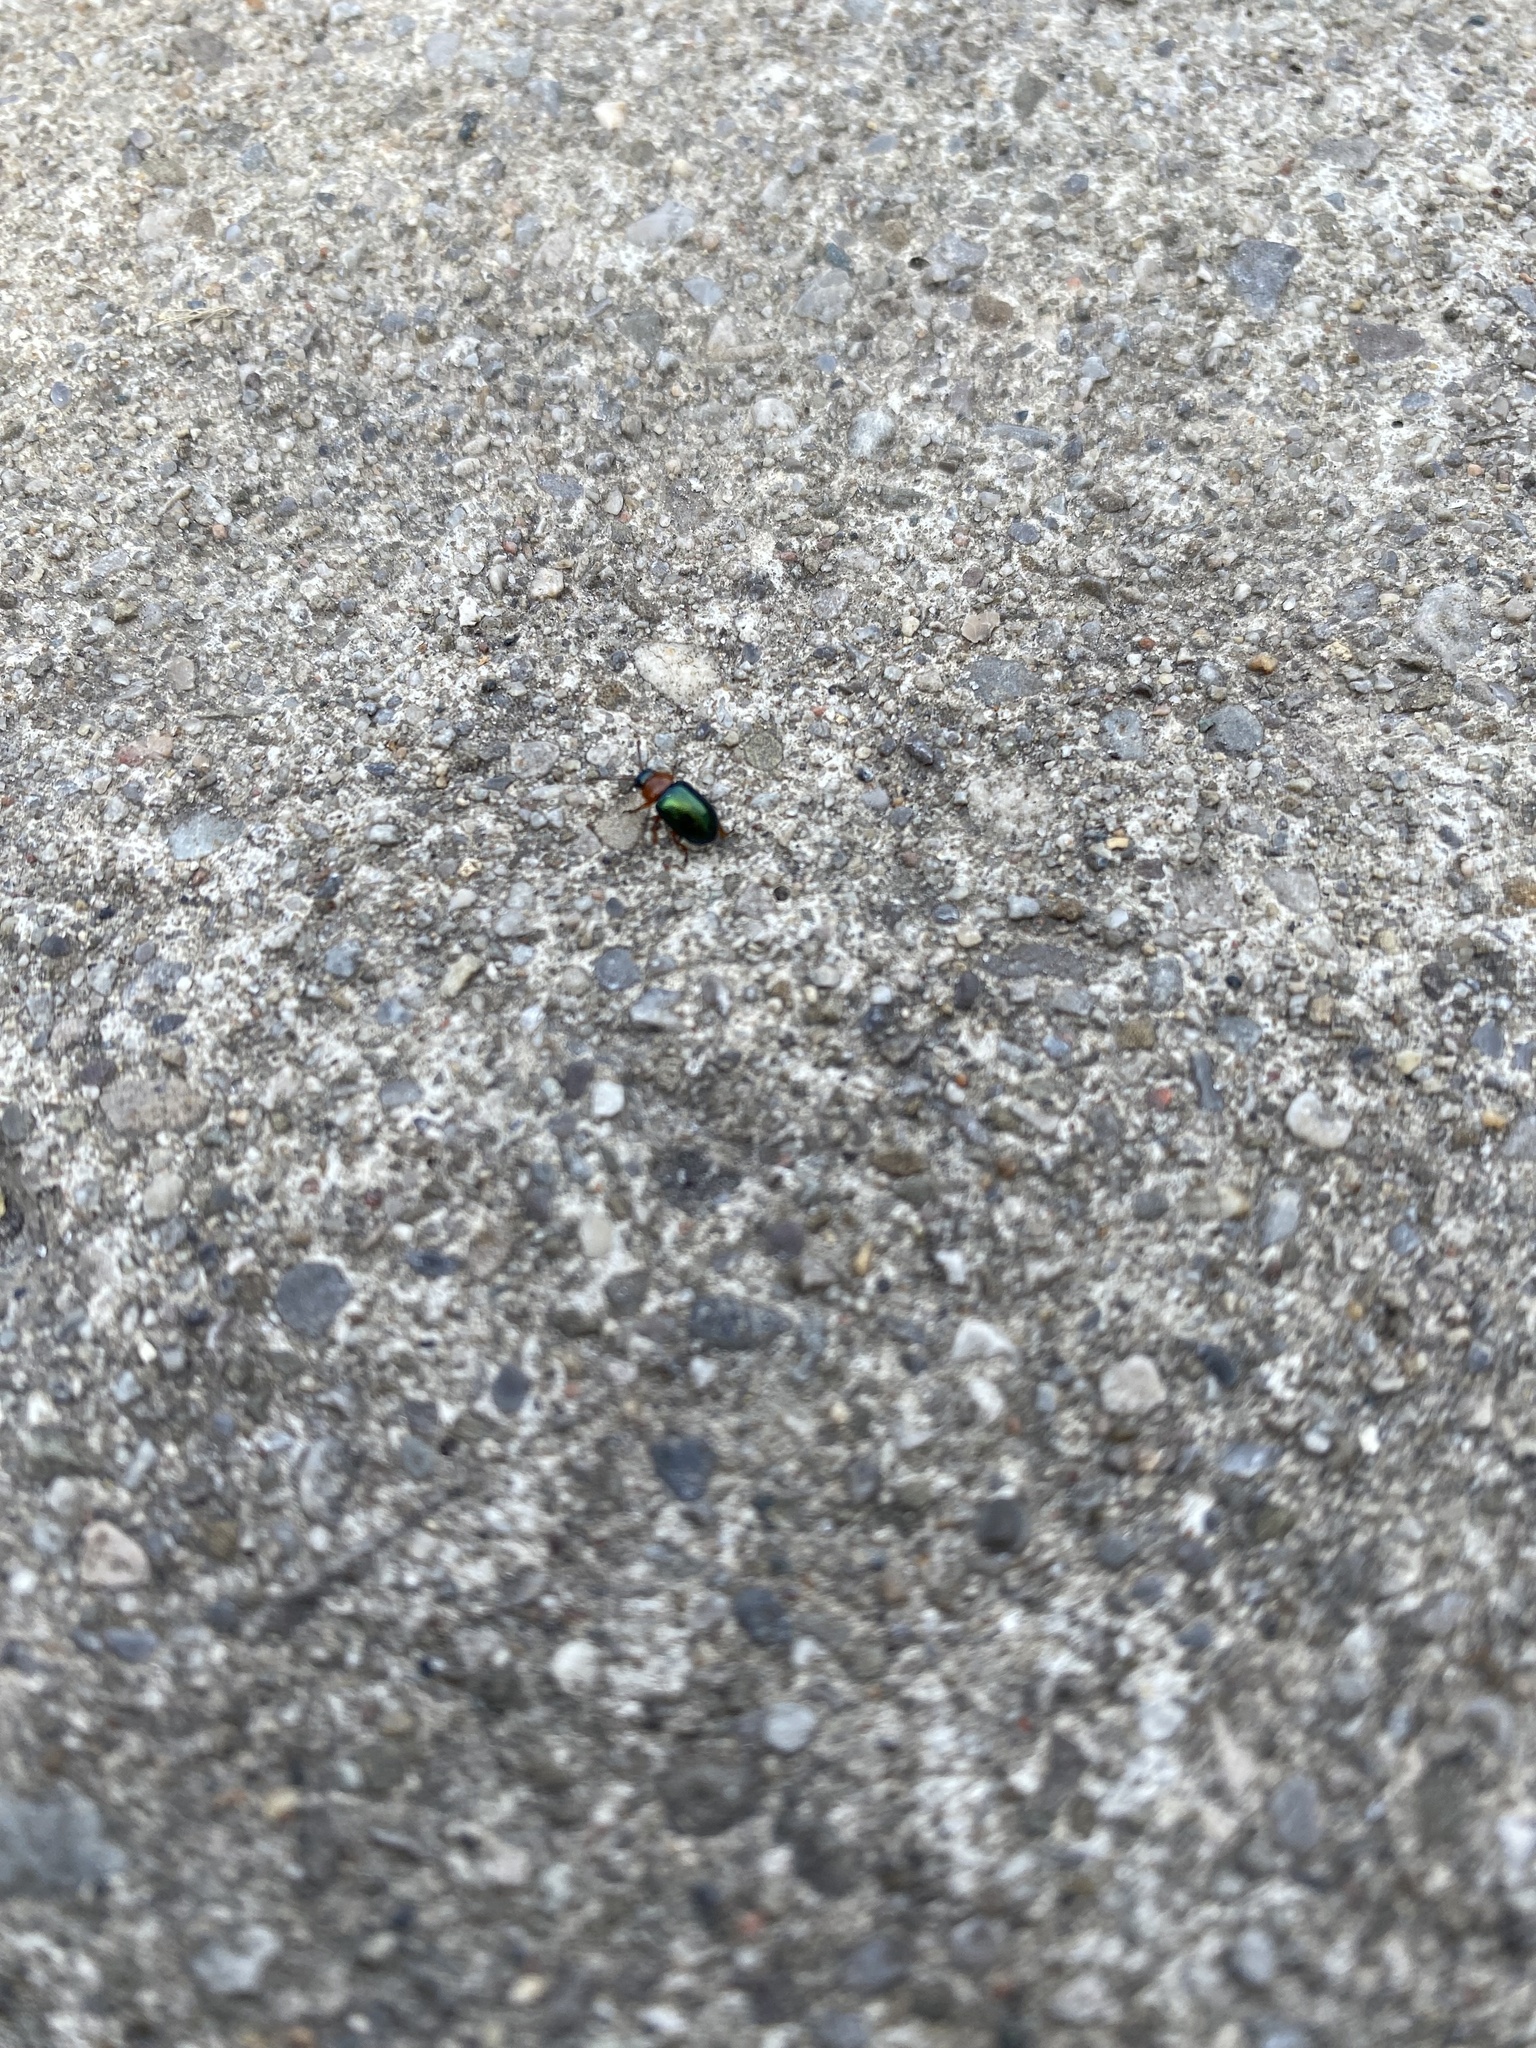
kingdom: Animalia
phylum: Arthropoda
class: Insecta
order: Coleoptera
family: Chrysomelidae
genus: Gastrophysa
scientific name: Gastrophysa polygoni
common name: Knotweed leaf beetle
